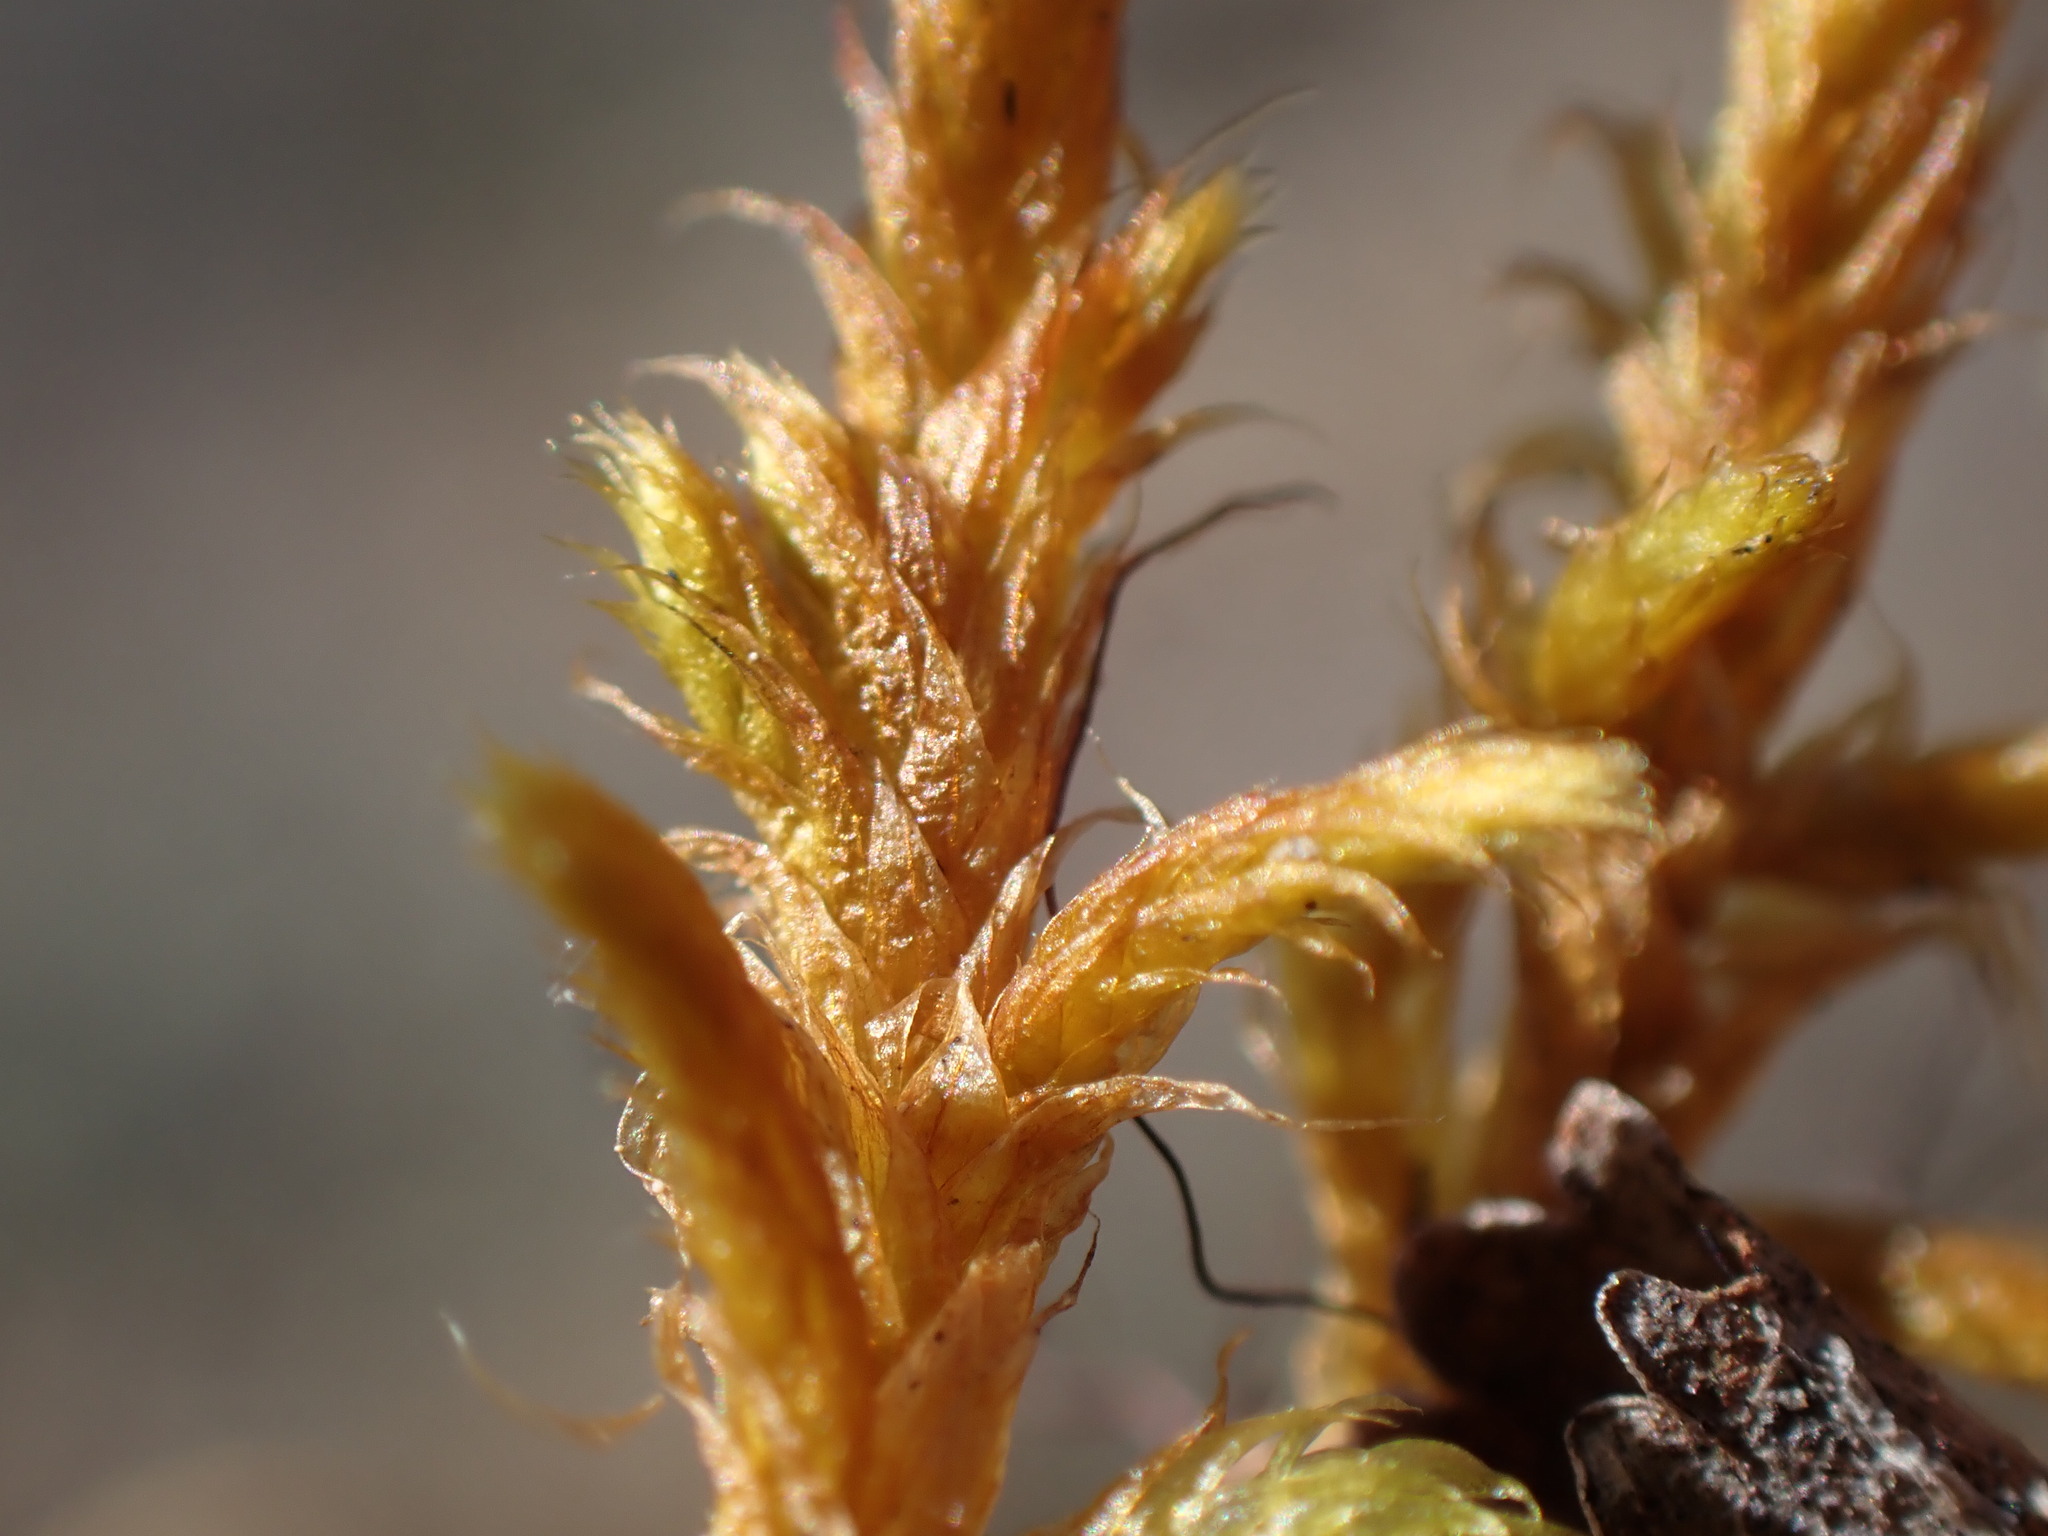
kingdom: Plantae
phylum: Bryophyta
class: Bryopsida
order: Hypnales
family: Rhytidiaceae
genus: Rhytidium
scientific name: Rhytidium rugosum
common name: Wrinkle-leaved moss
